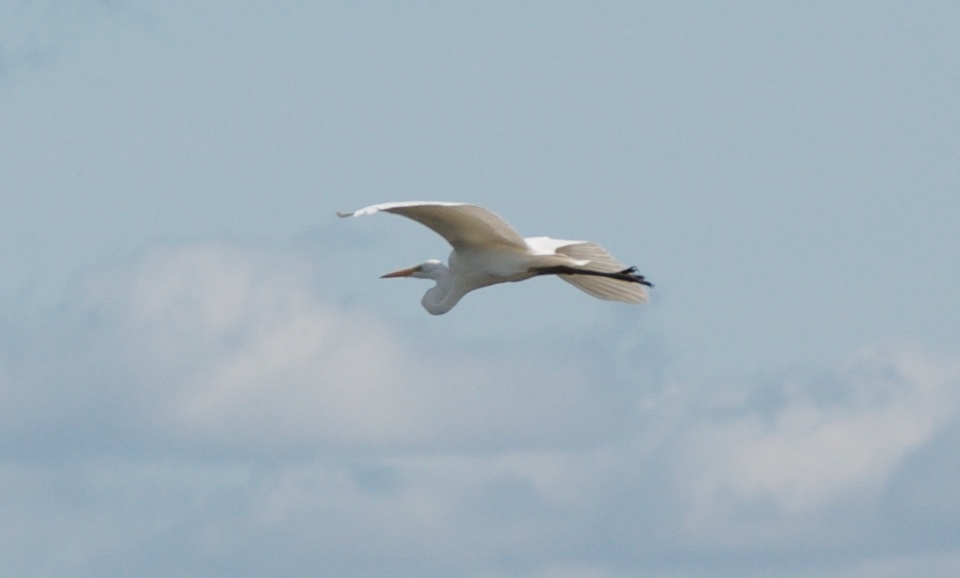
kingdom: Animalia
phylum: Chordata
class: Aves
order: Pelecaniformes
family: Ardeidae
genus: Ardea
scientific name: Ardea alba
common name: Great egret
